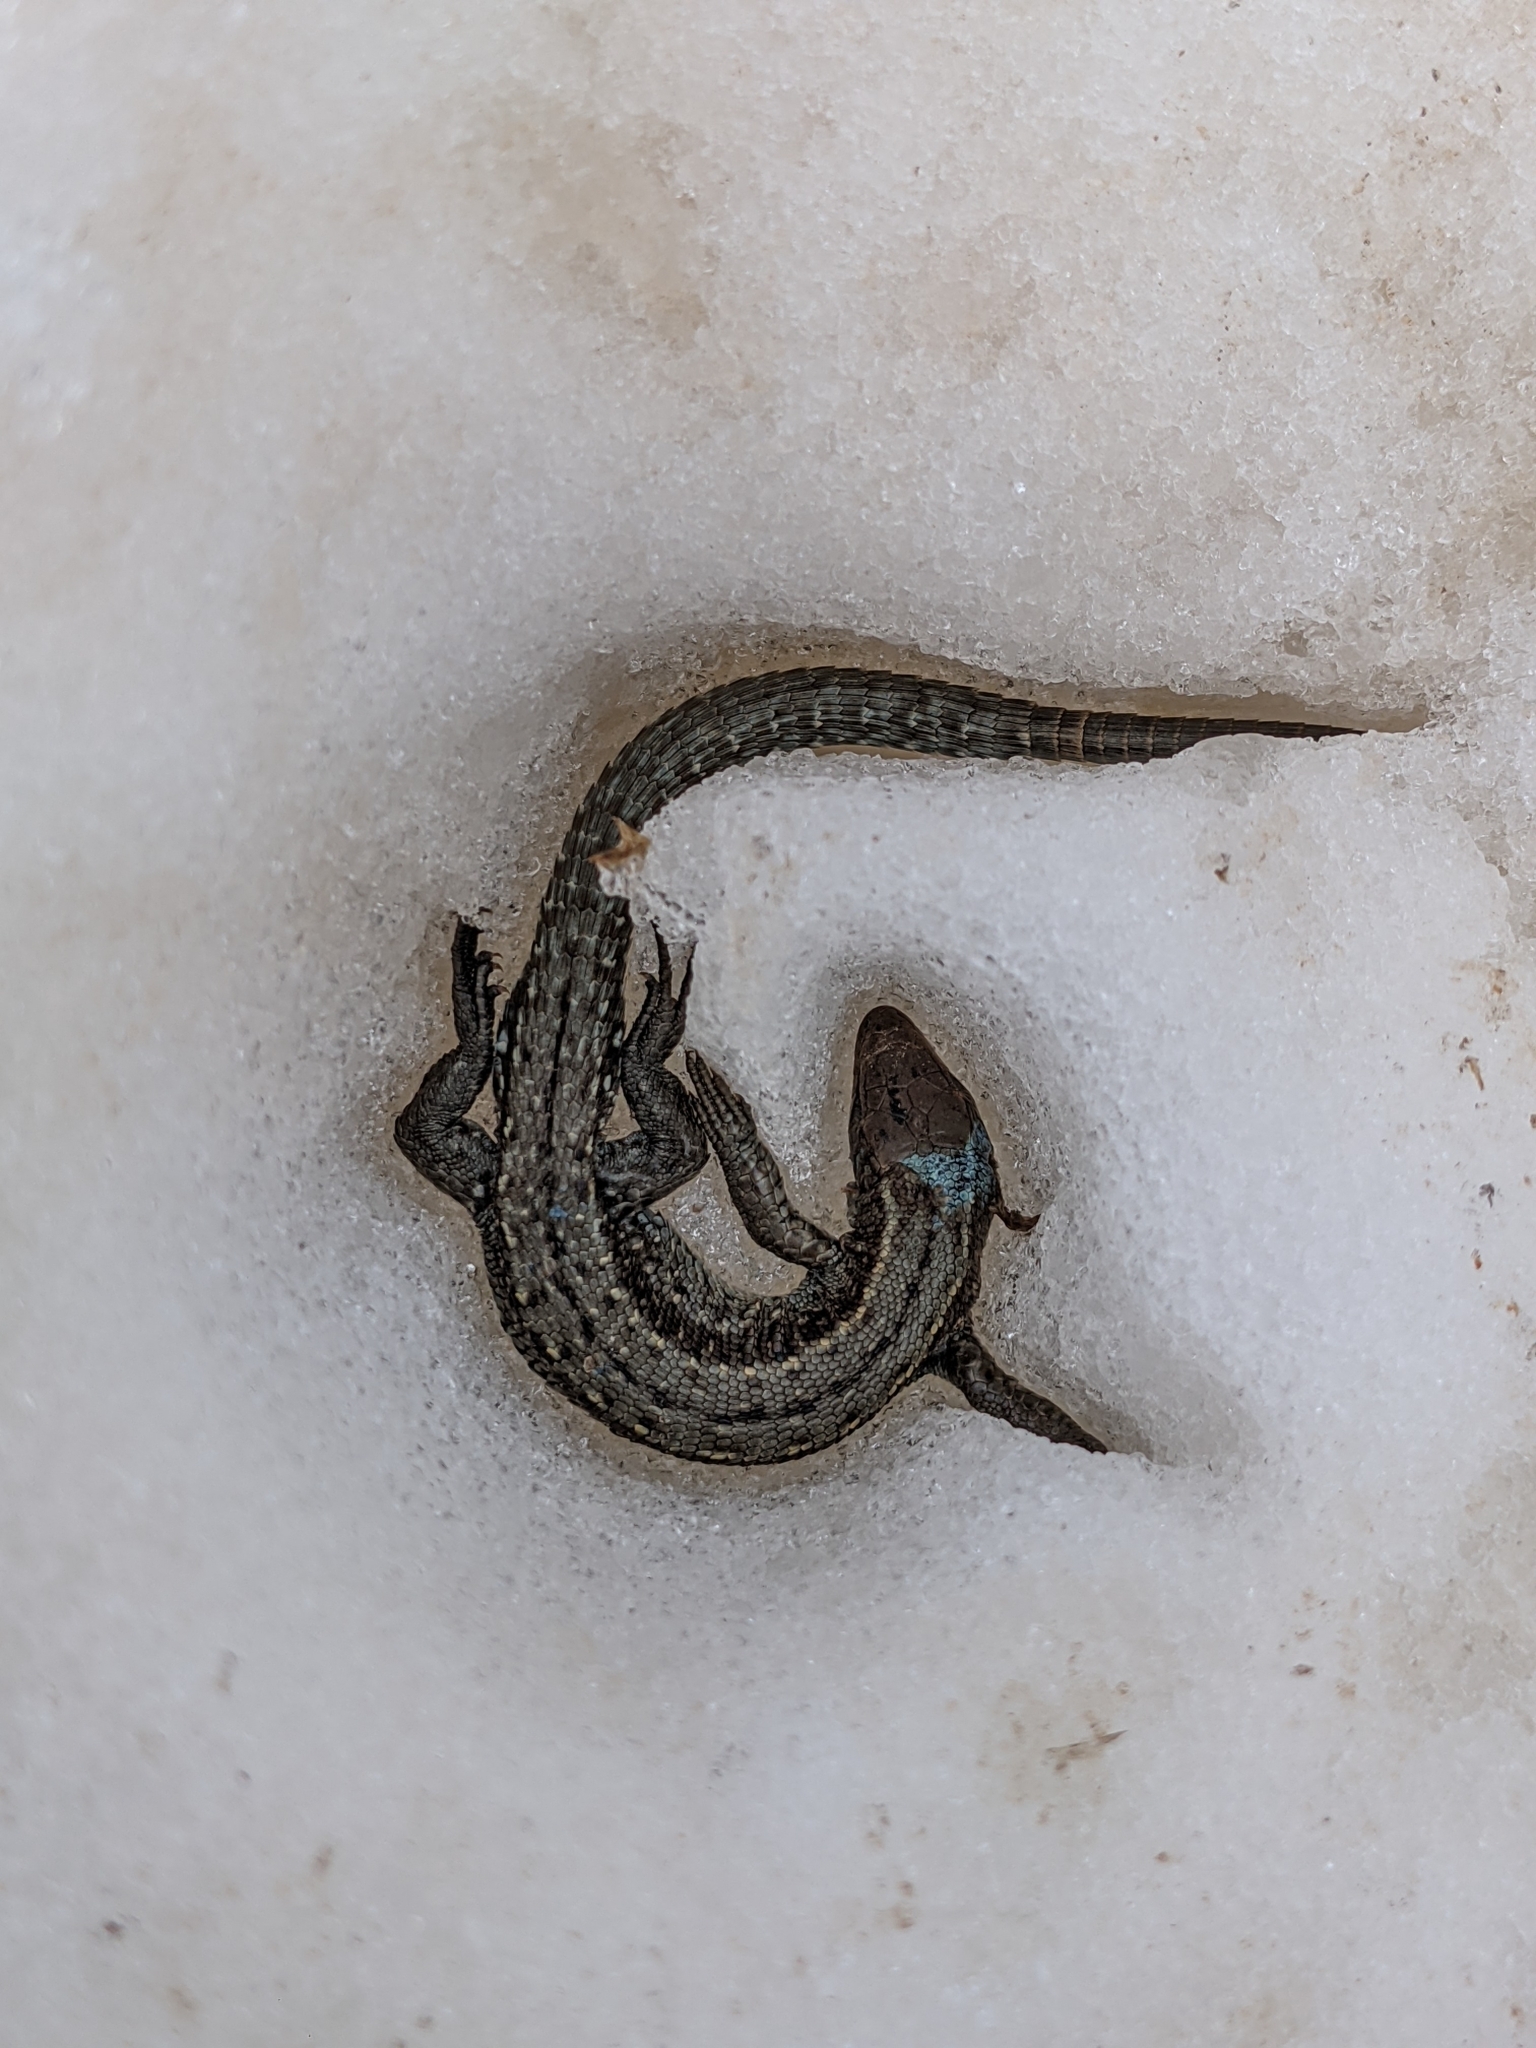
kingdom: Animalia
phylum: Chordata
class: Squamata
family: Lacertidae
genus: Zootoca
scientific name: Zootoca vivipara
